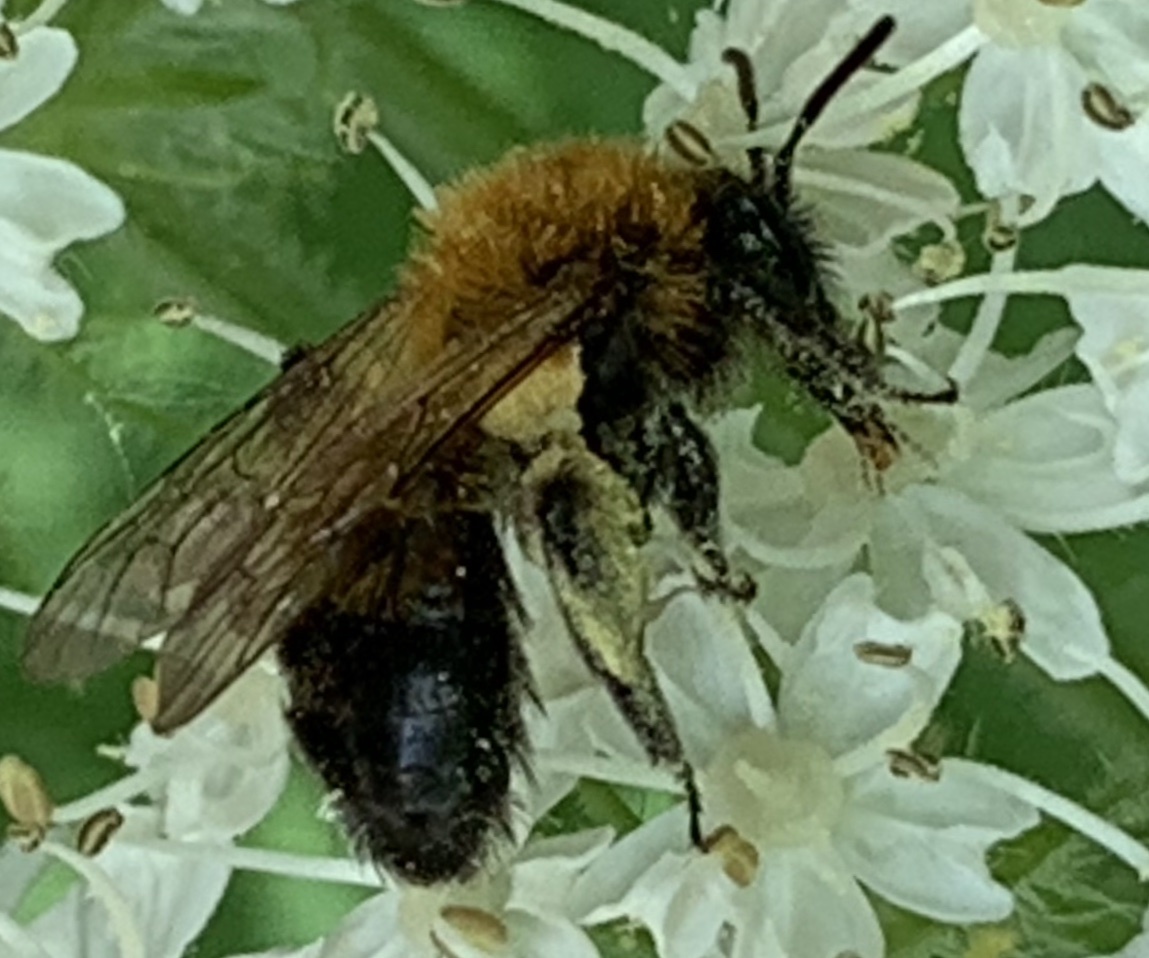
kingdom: Animalia
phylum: Arthropoda
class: Insecta
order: Hymenoptera
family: Andrenidae
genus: Andrena
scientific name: Andrena milwaukeensis
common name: Milwaukee mining bee
